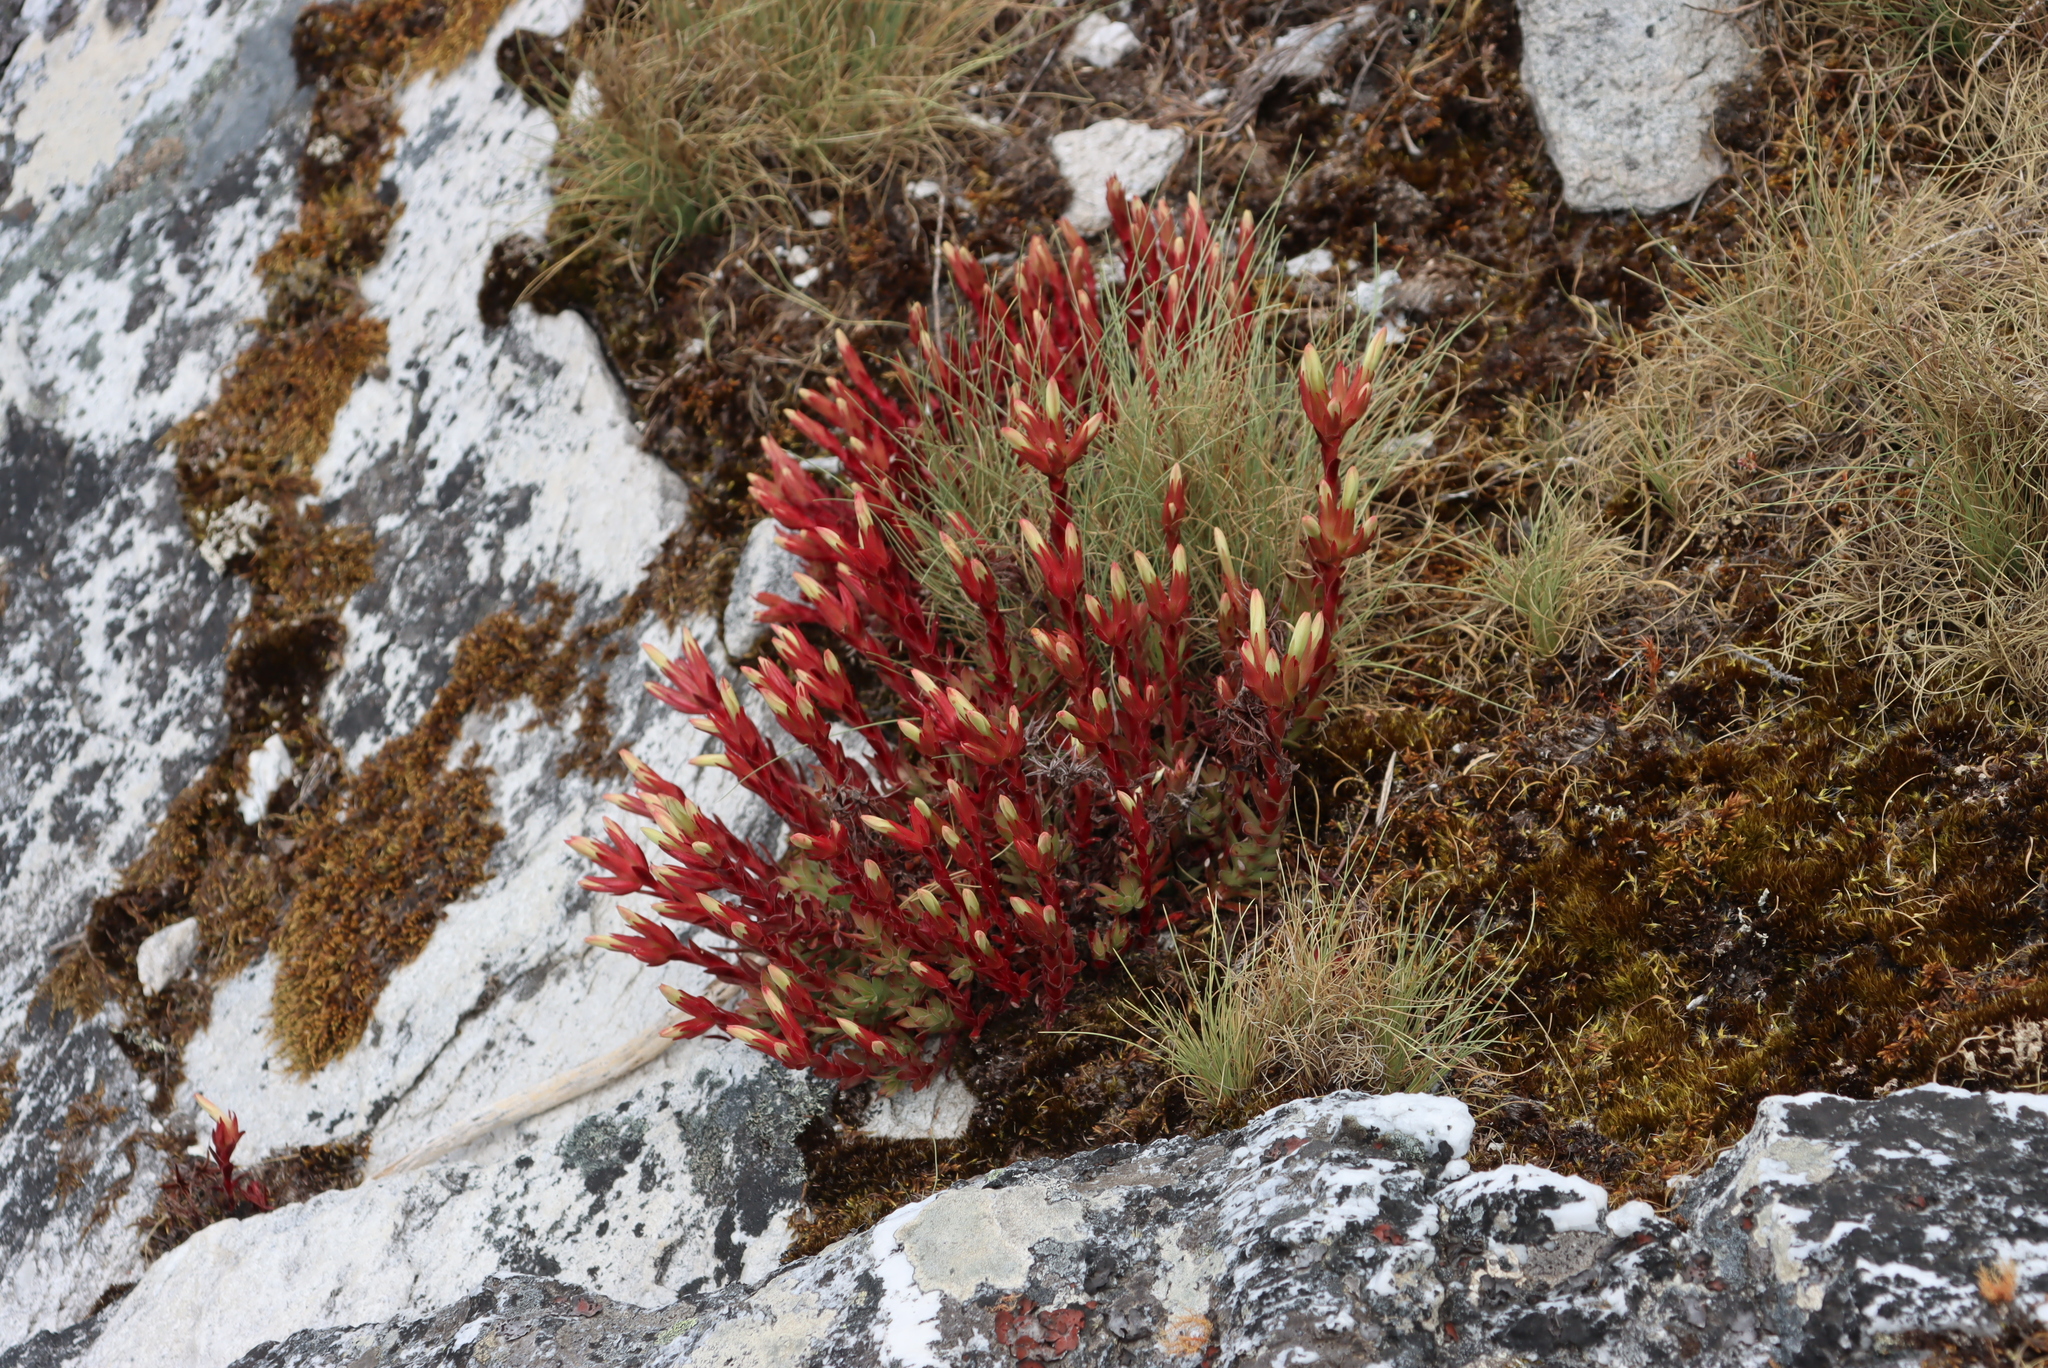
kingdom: Plantae
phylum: Tracheophyta
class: Magnoliopsida
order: Saxifragales
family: Crassulaceae
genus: Crassula
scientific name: Crassula obtusa
